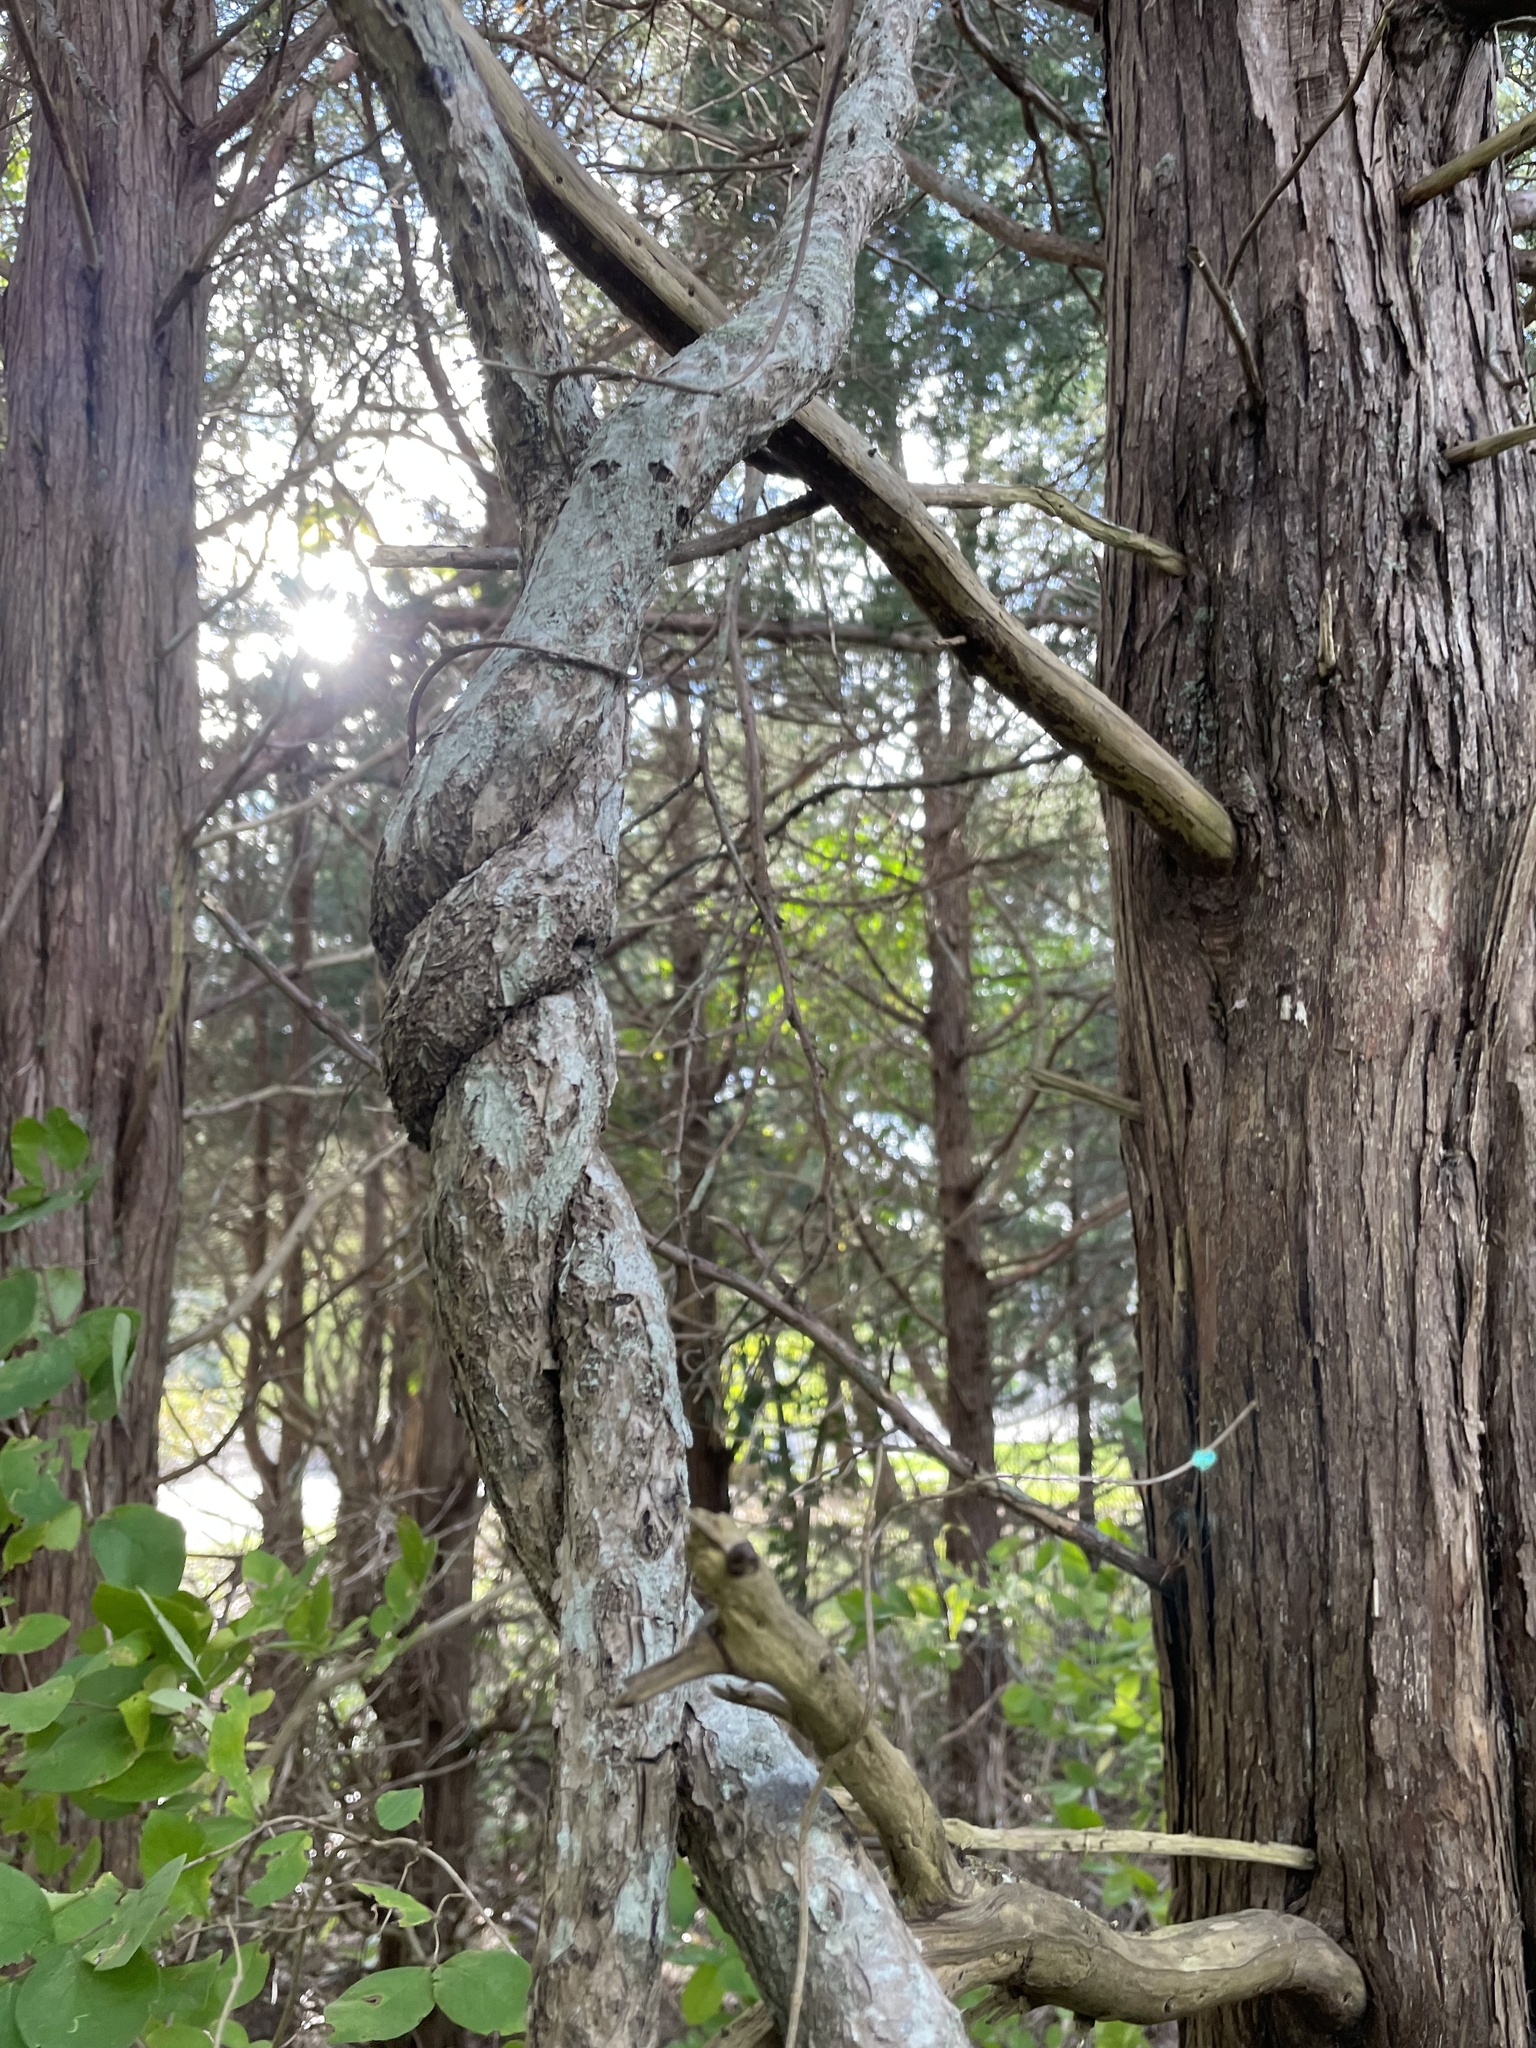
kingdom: Plantae
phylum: Tracheophyta
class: Magnoliopsida
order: Celastrales
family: Celastraceae
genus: Celastrus
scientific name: Celastrus orbiculatus
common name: Oriental bittersweet
